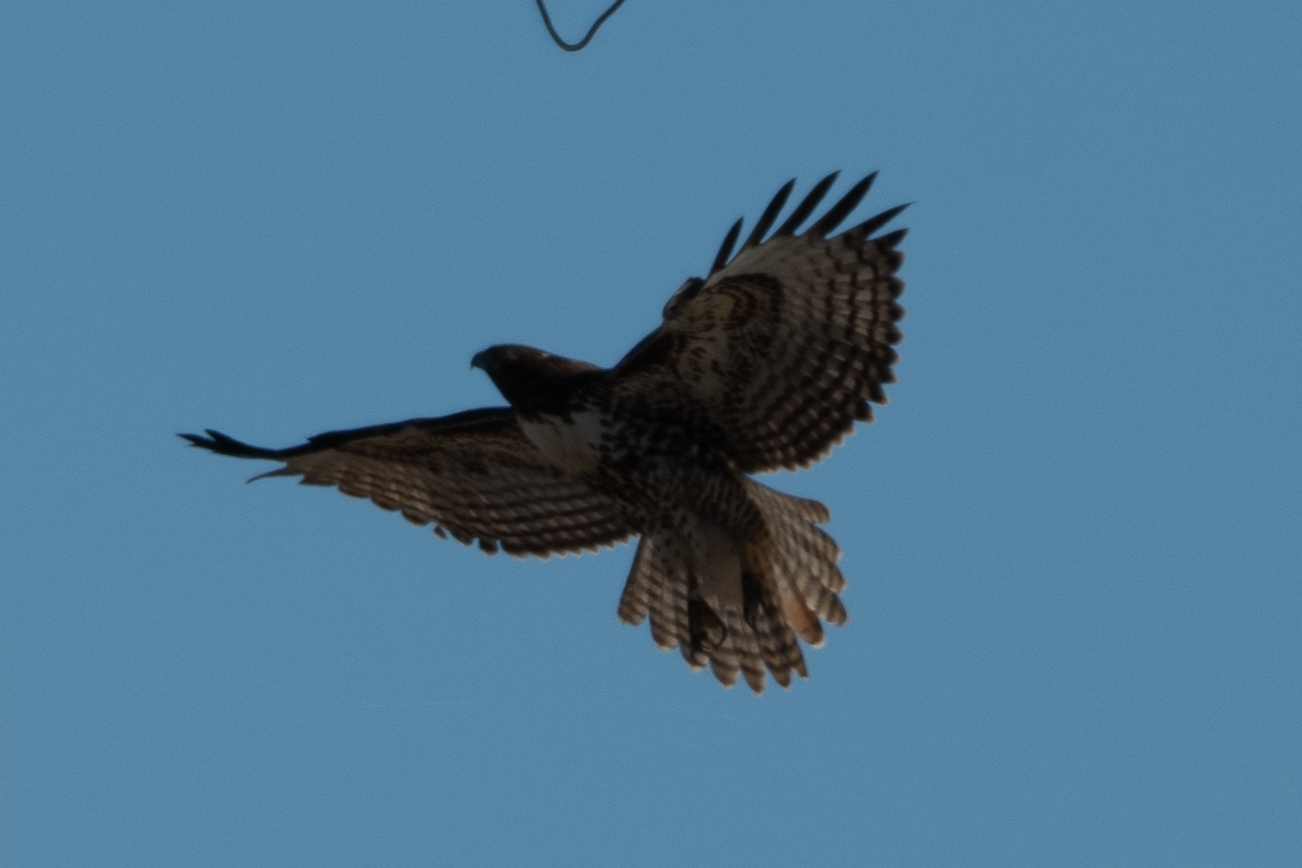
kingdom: Animalia
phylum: Chordata
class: Aves
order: Accipitriformes
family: Accipitridae
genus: Buteo
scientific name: Buteo jamaicensis
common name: Red-tailed hawk
